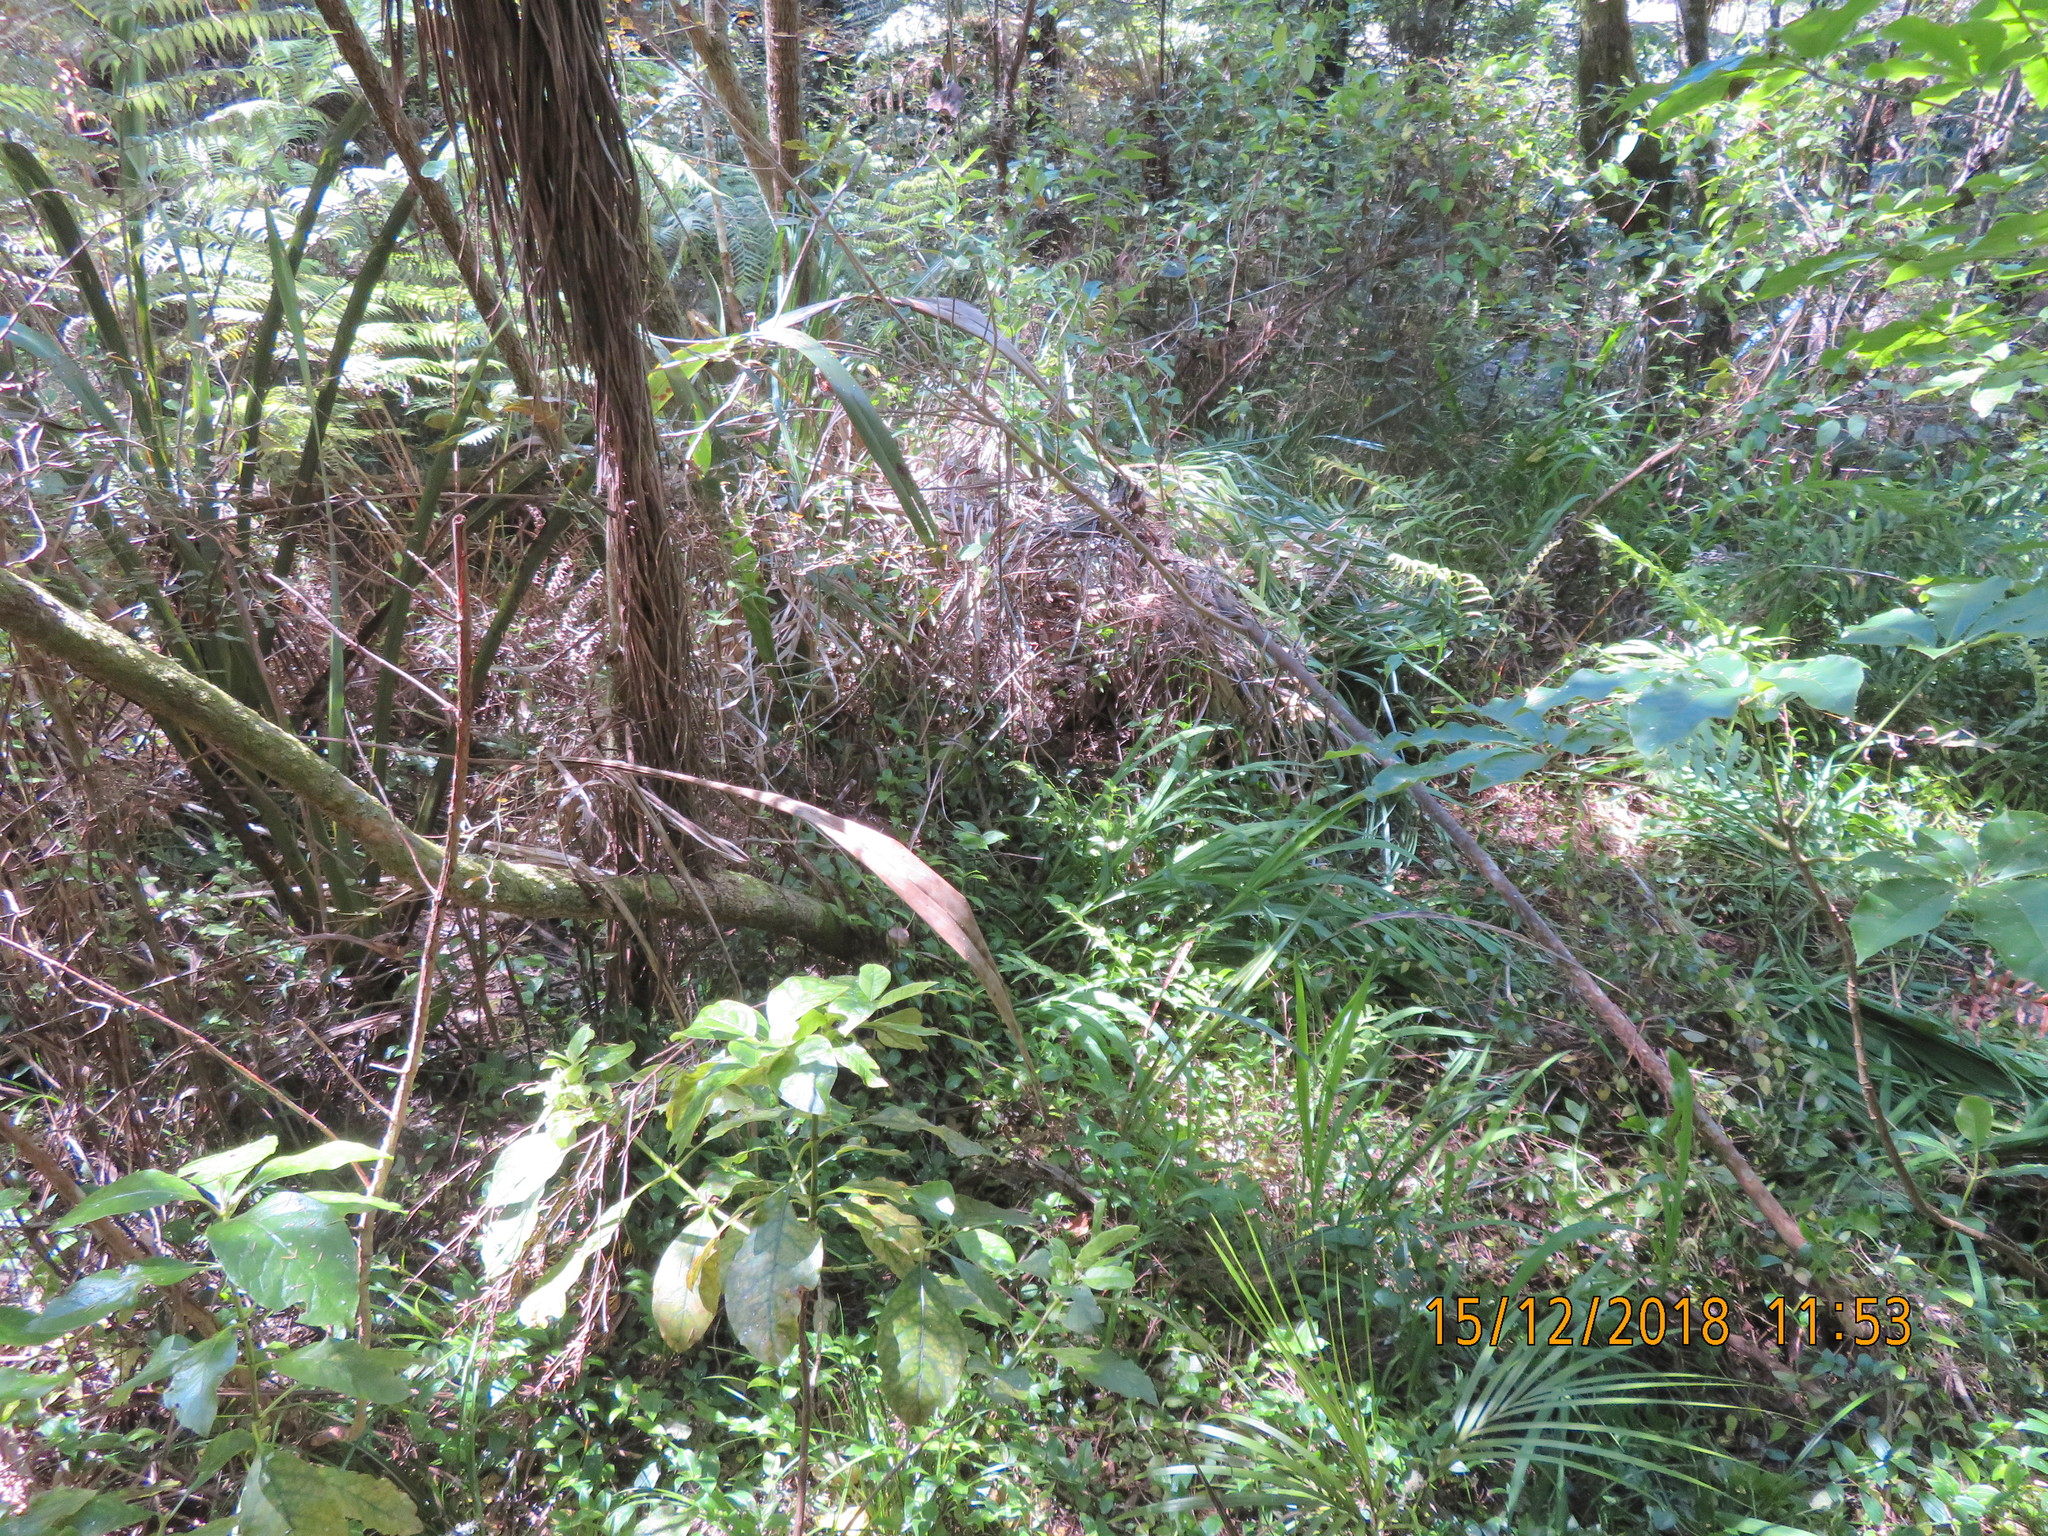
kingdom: Plantae
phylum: Tracheophyta
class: Magnoliopsida
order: Gentianales
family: Rubiaceae
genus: Coprosma
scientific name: Coprosma autumnalis
